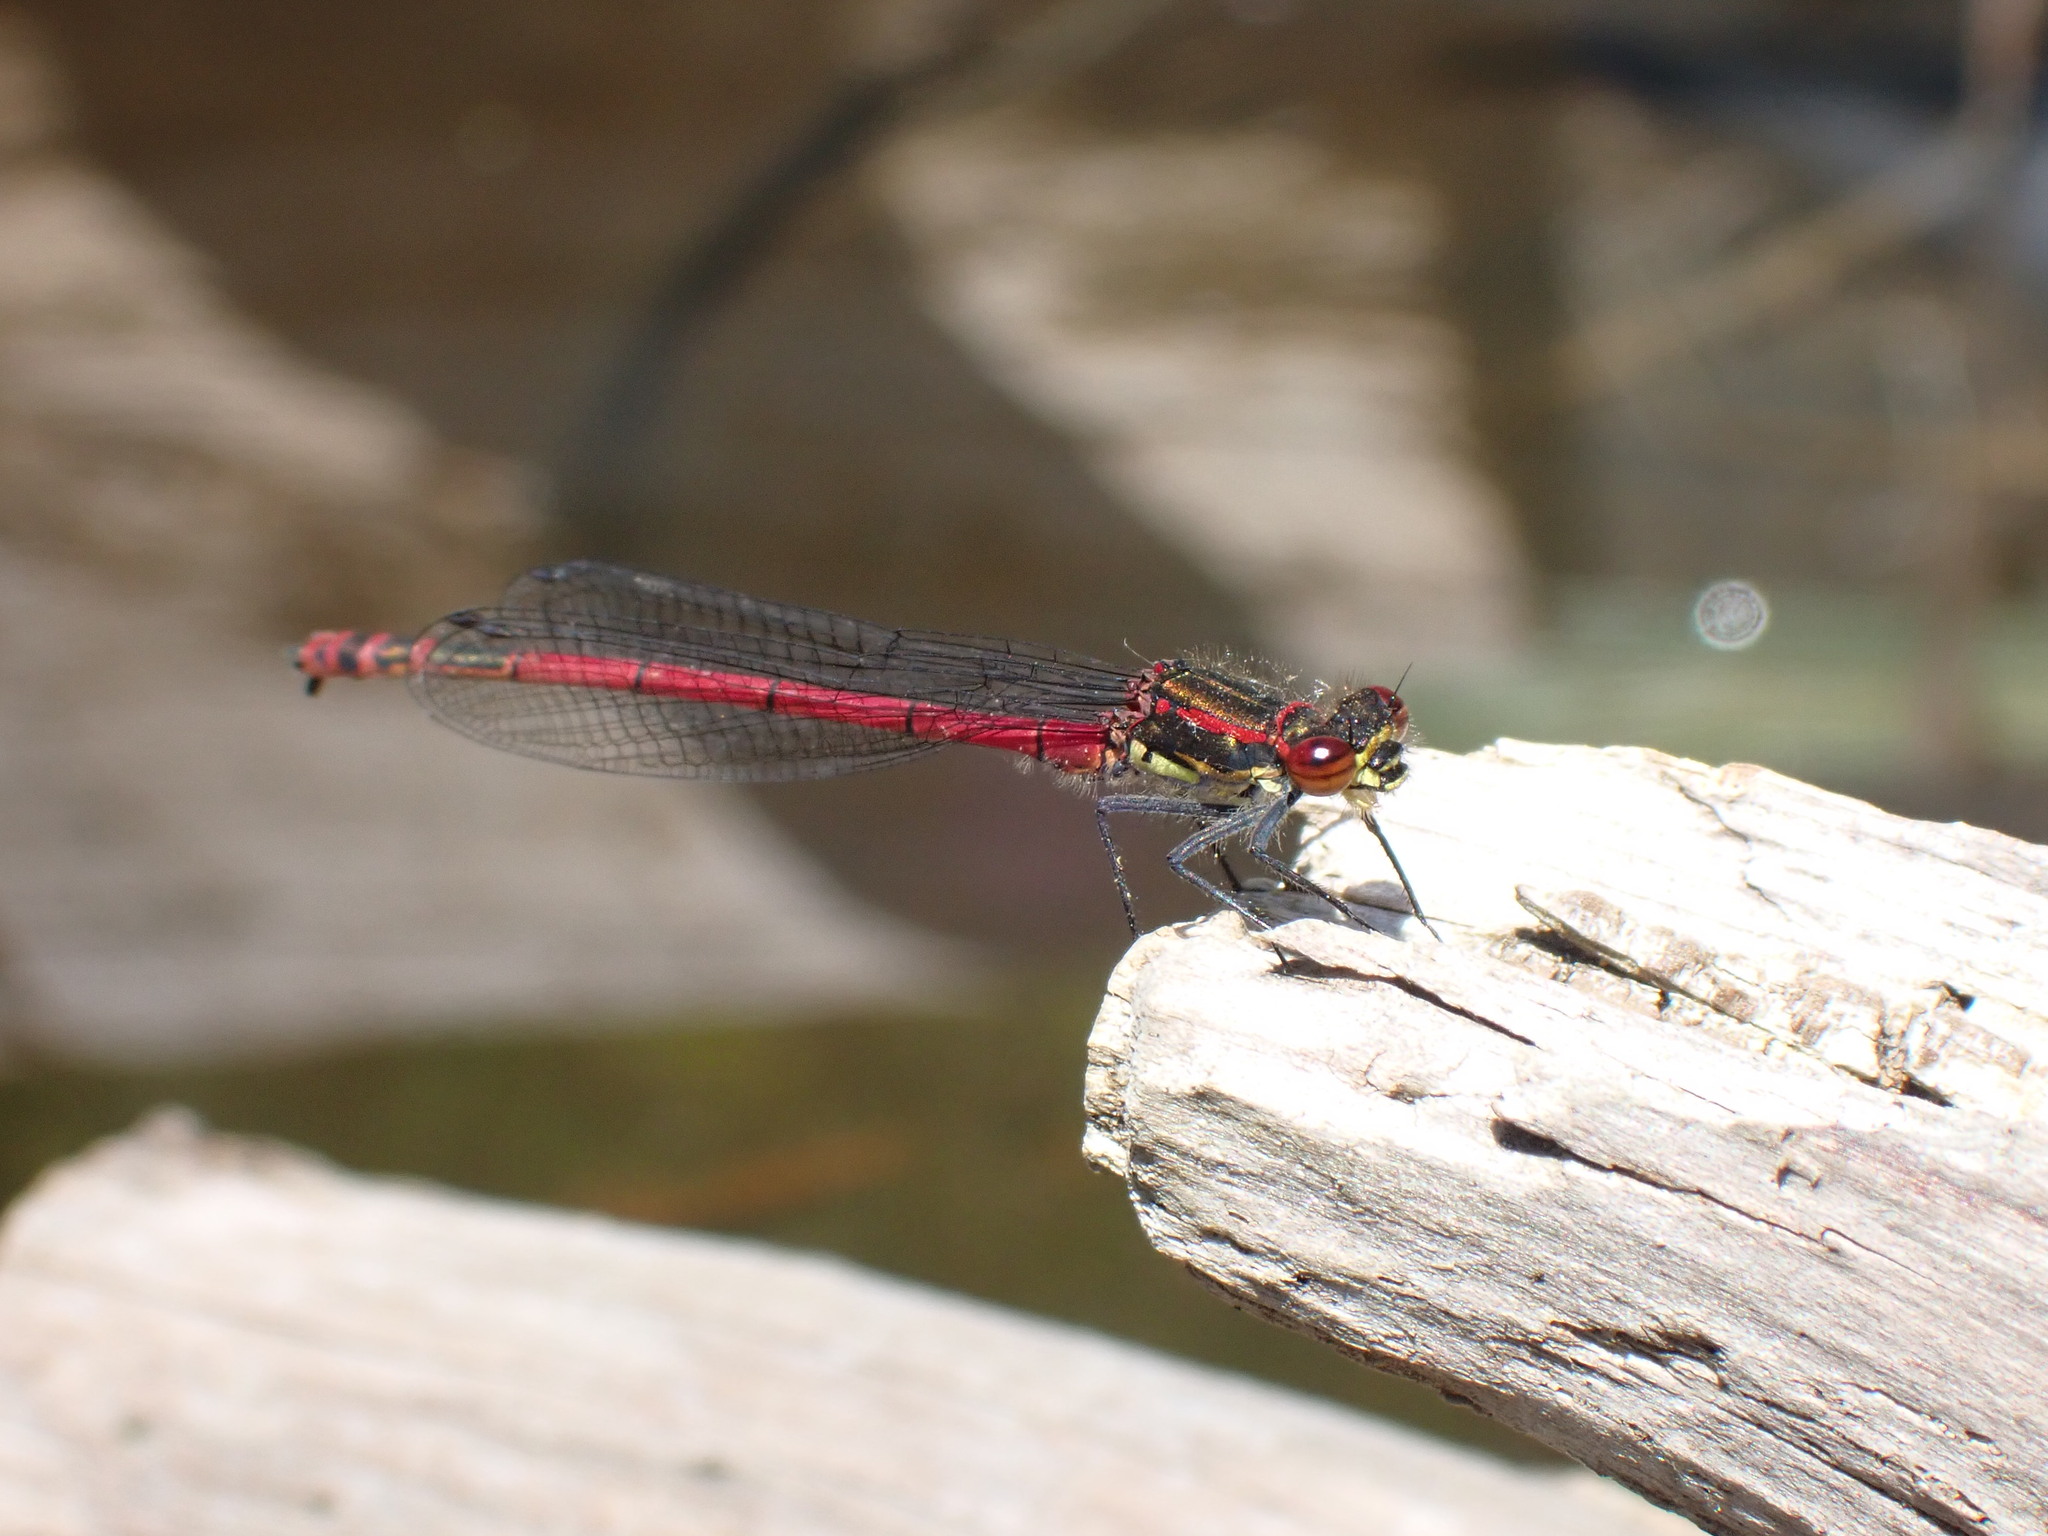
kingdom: Animalia
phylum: Arthropoda
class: Insecta
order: Odonata
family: Coenagrionidae
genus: Pyrrhosoma
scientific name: Pyrrhosoma nymphula
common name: Large red damsel
